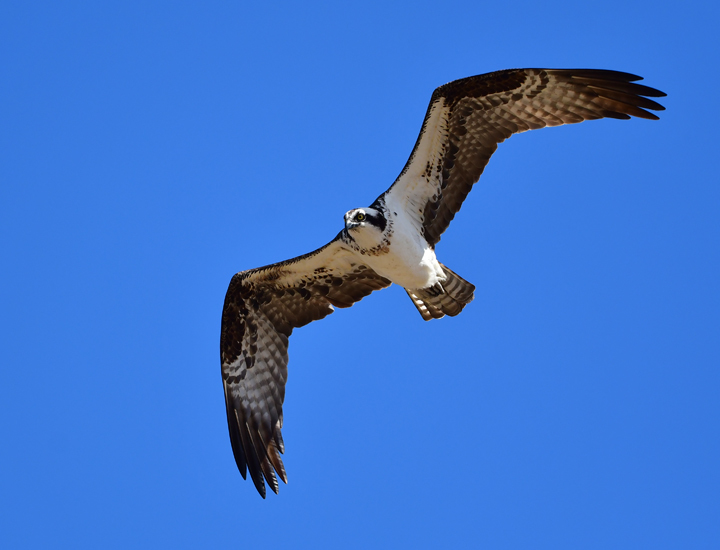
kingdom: Animalia
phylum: Chordata
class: Aves
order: Accipitriformes
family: Pandionidae
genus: Pandion
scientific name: Pandion haliaetus
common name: Osprey
